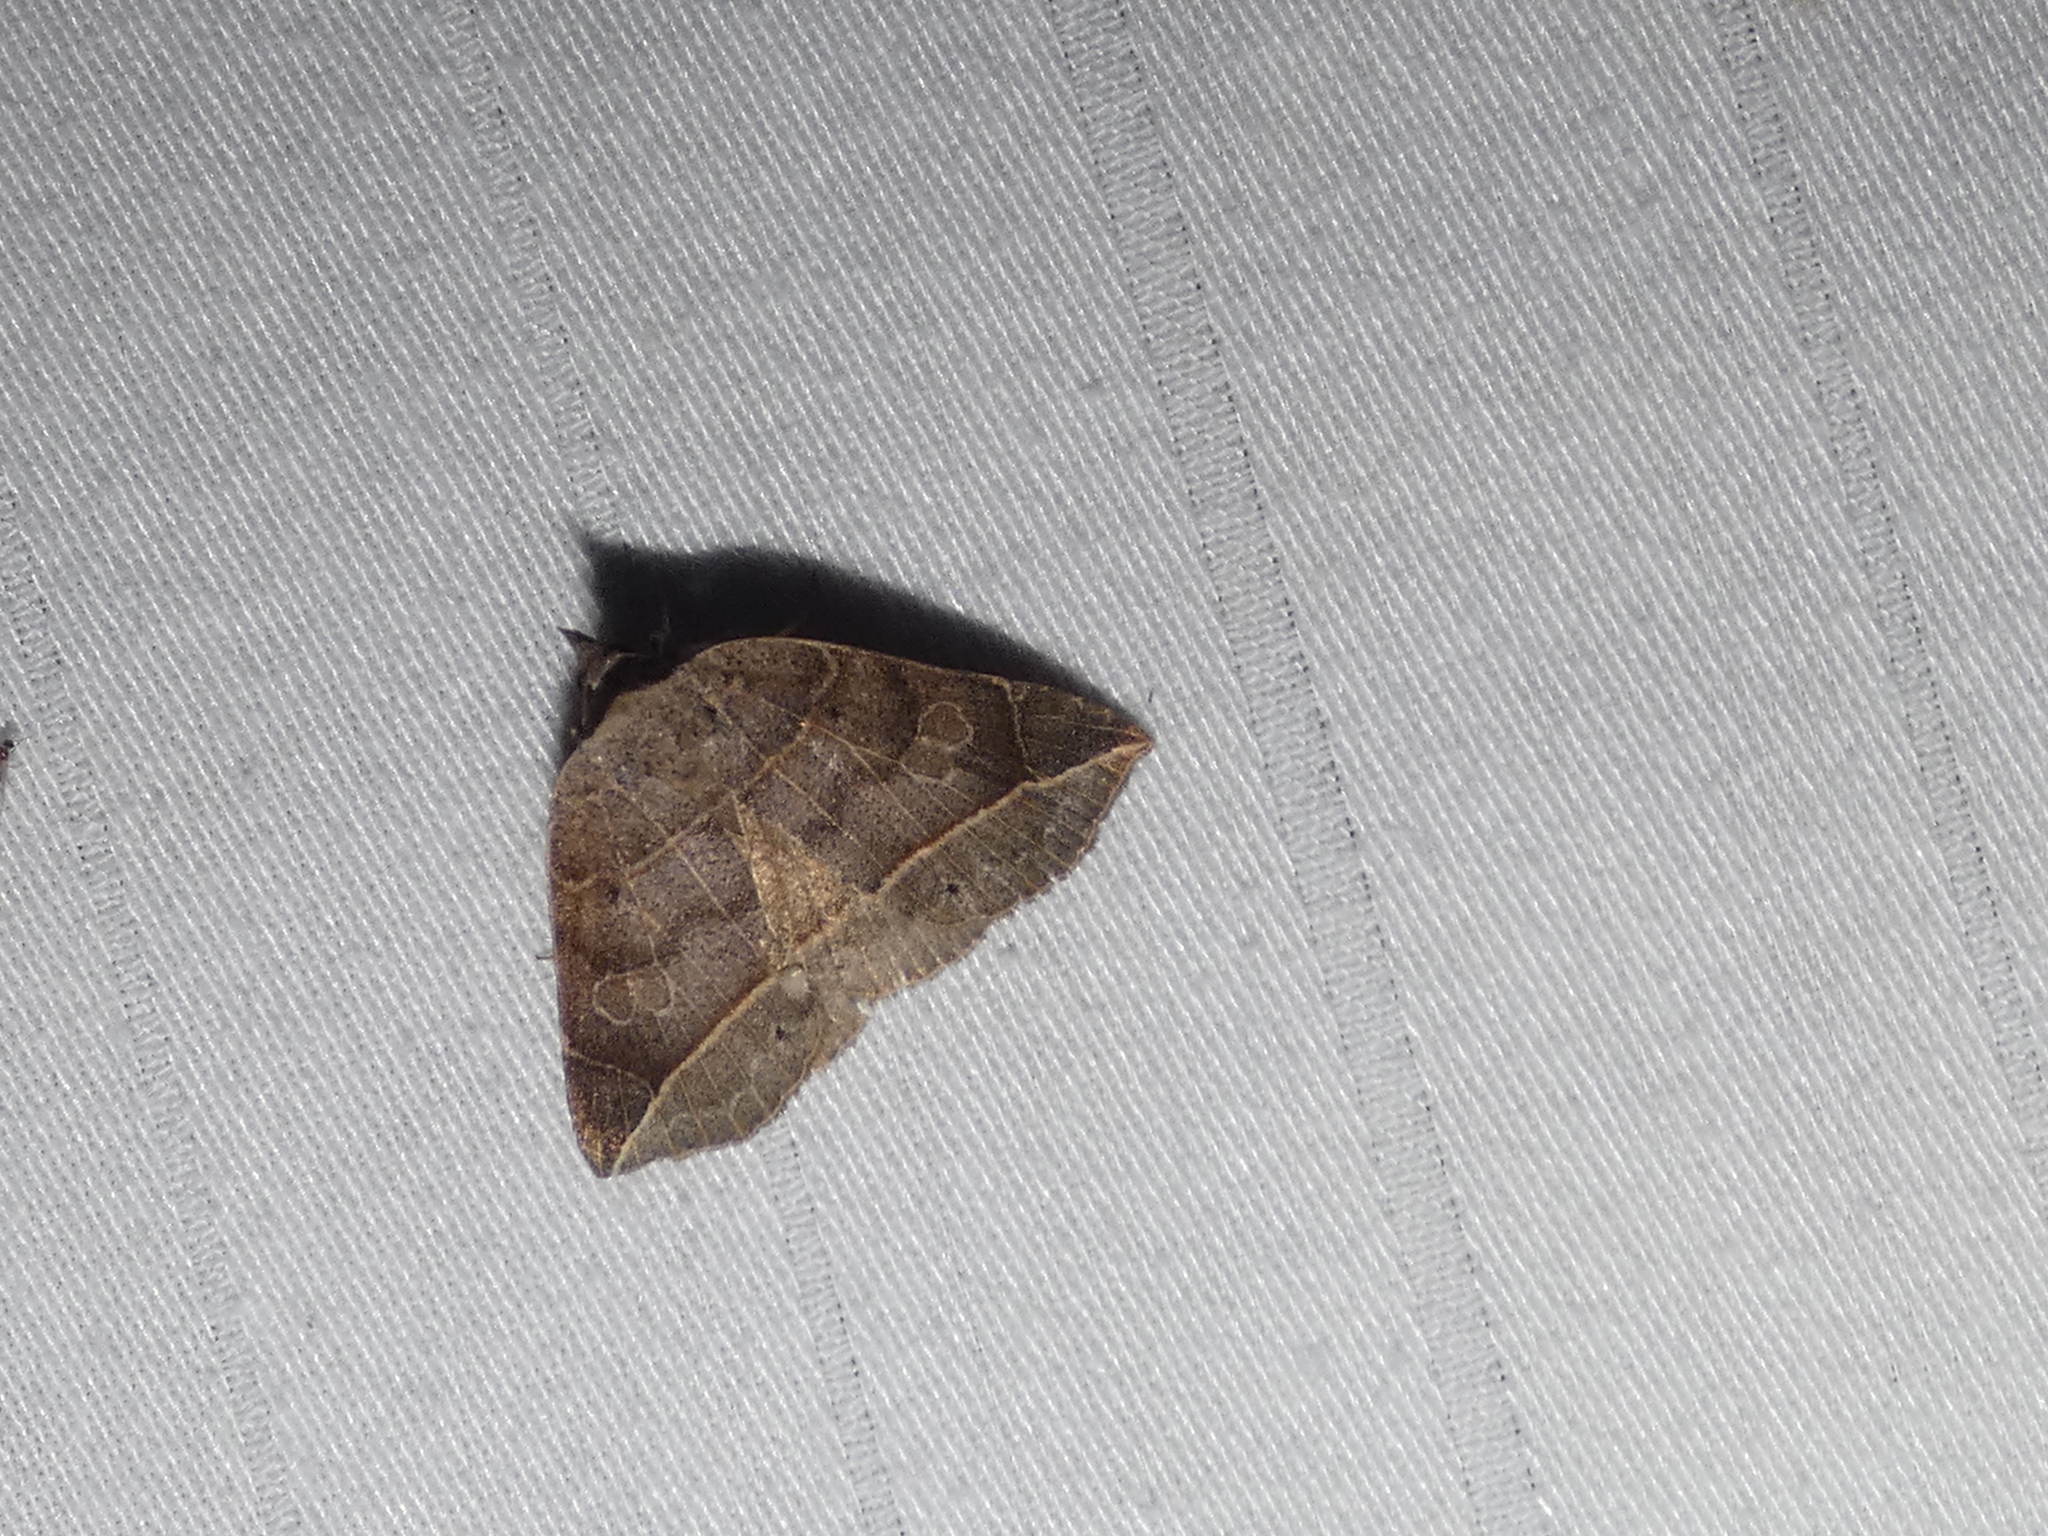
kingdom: Animalia
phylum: Arthropoda
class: Insecta
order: Lepidoptera
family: Erebidae
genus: Isogona
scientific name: Isogona tenuis
